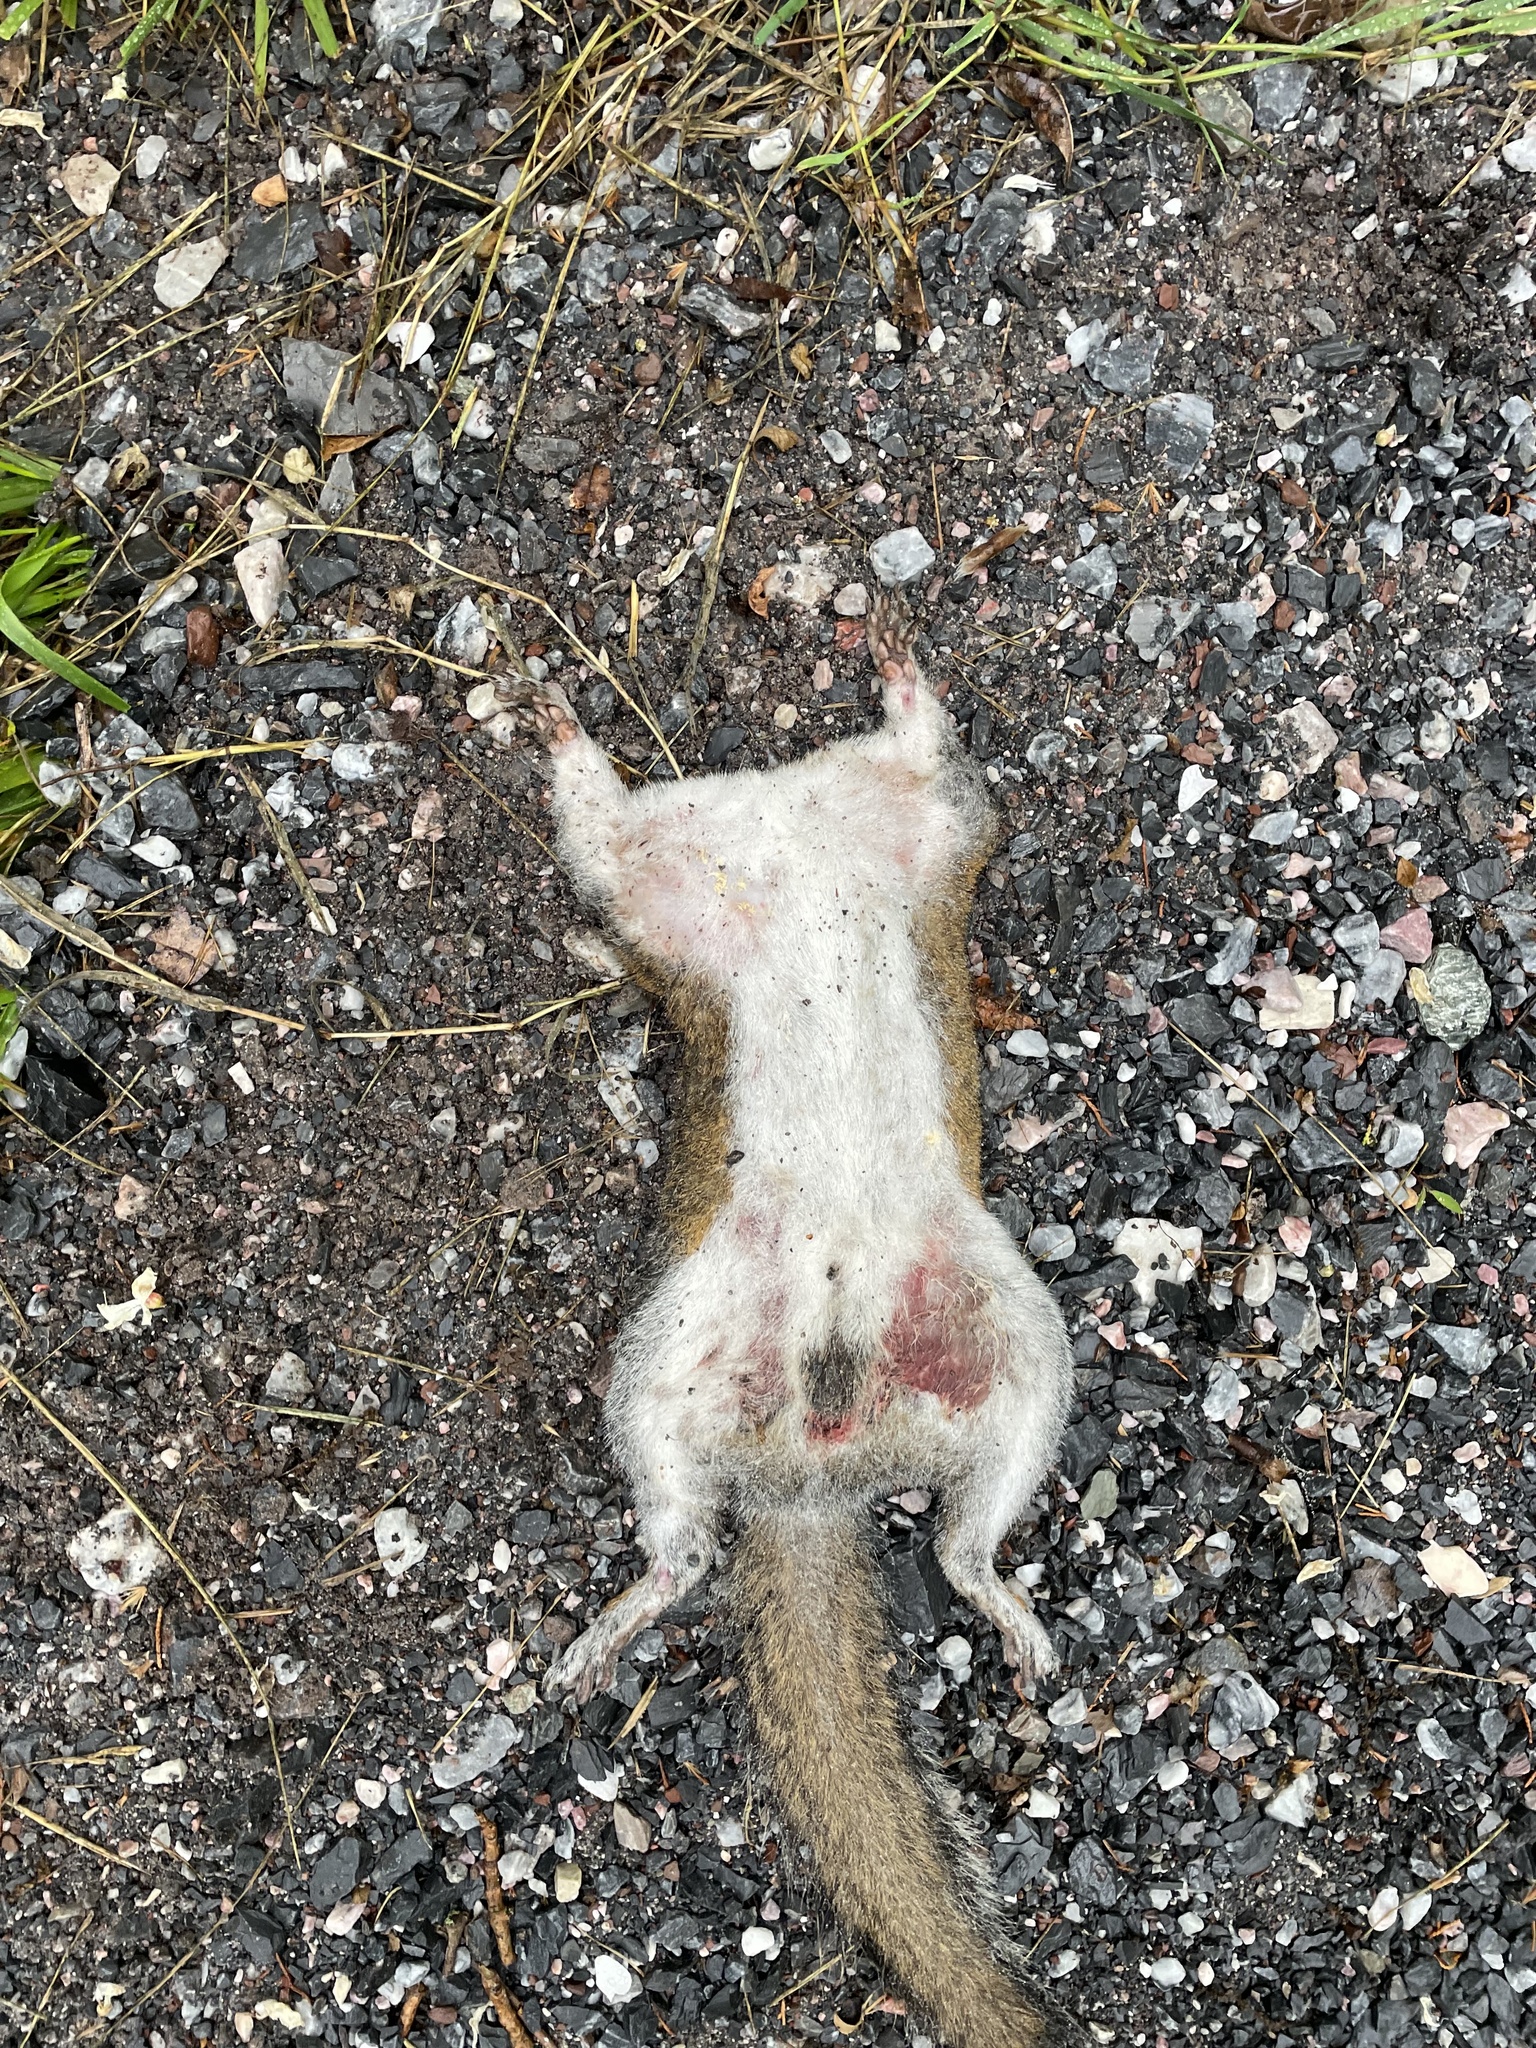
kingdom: Animalia
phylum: Chordata
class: Mammalia
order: Rodentia
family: Sciuridae
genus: Sciurus
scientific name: Sciurus carolinensis
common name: Eastern gray squirrel
